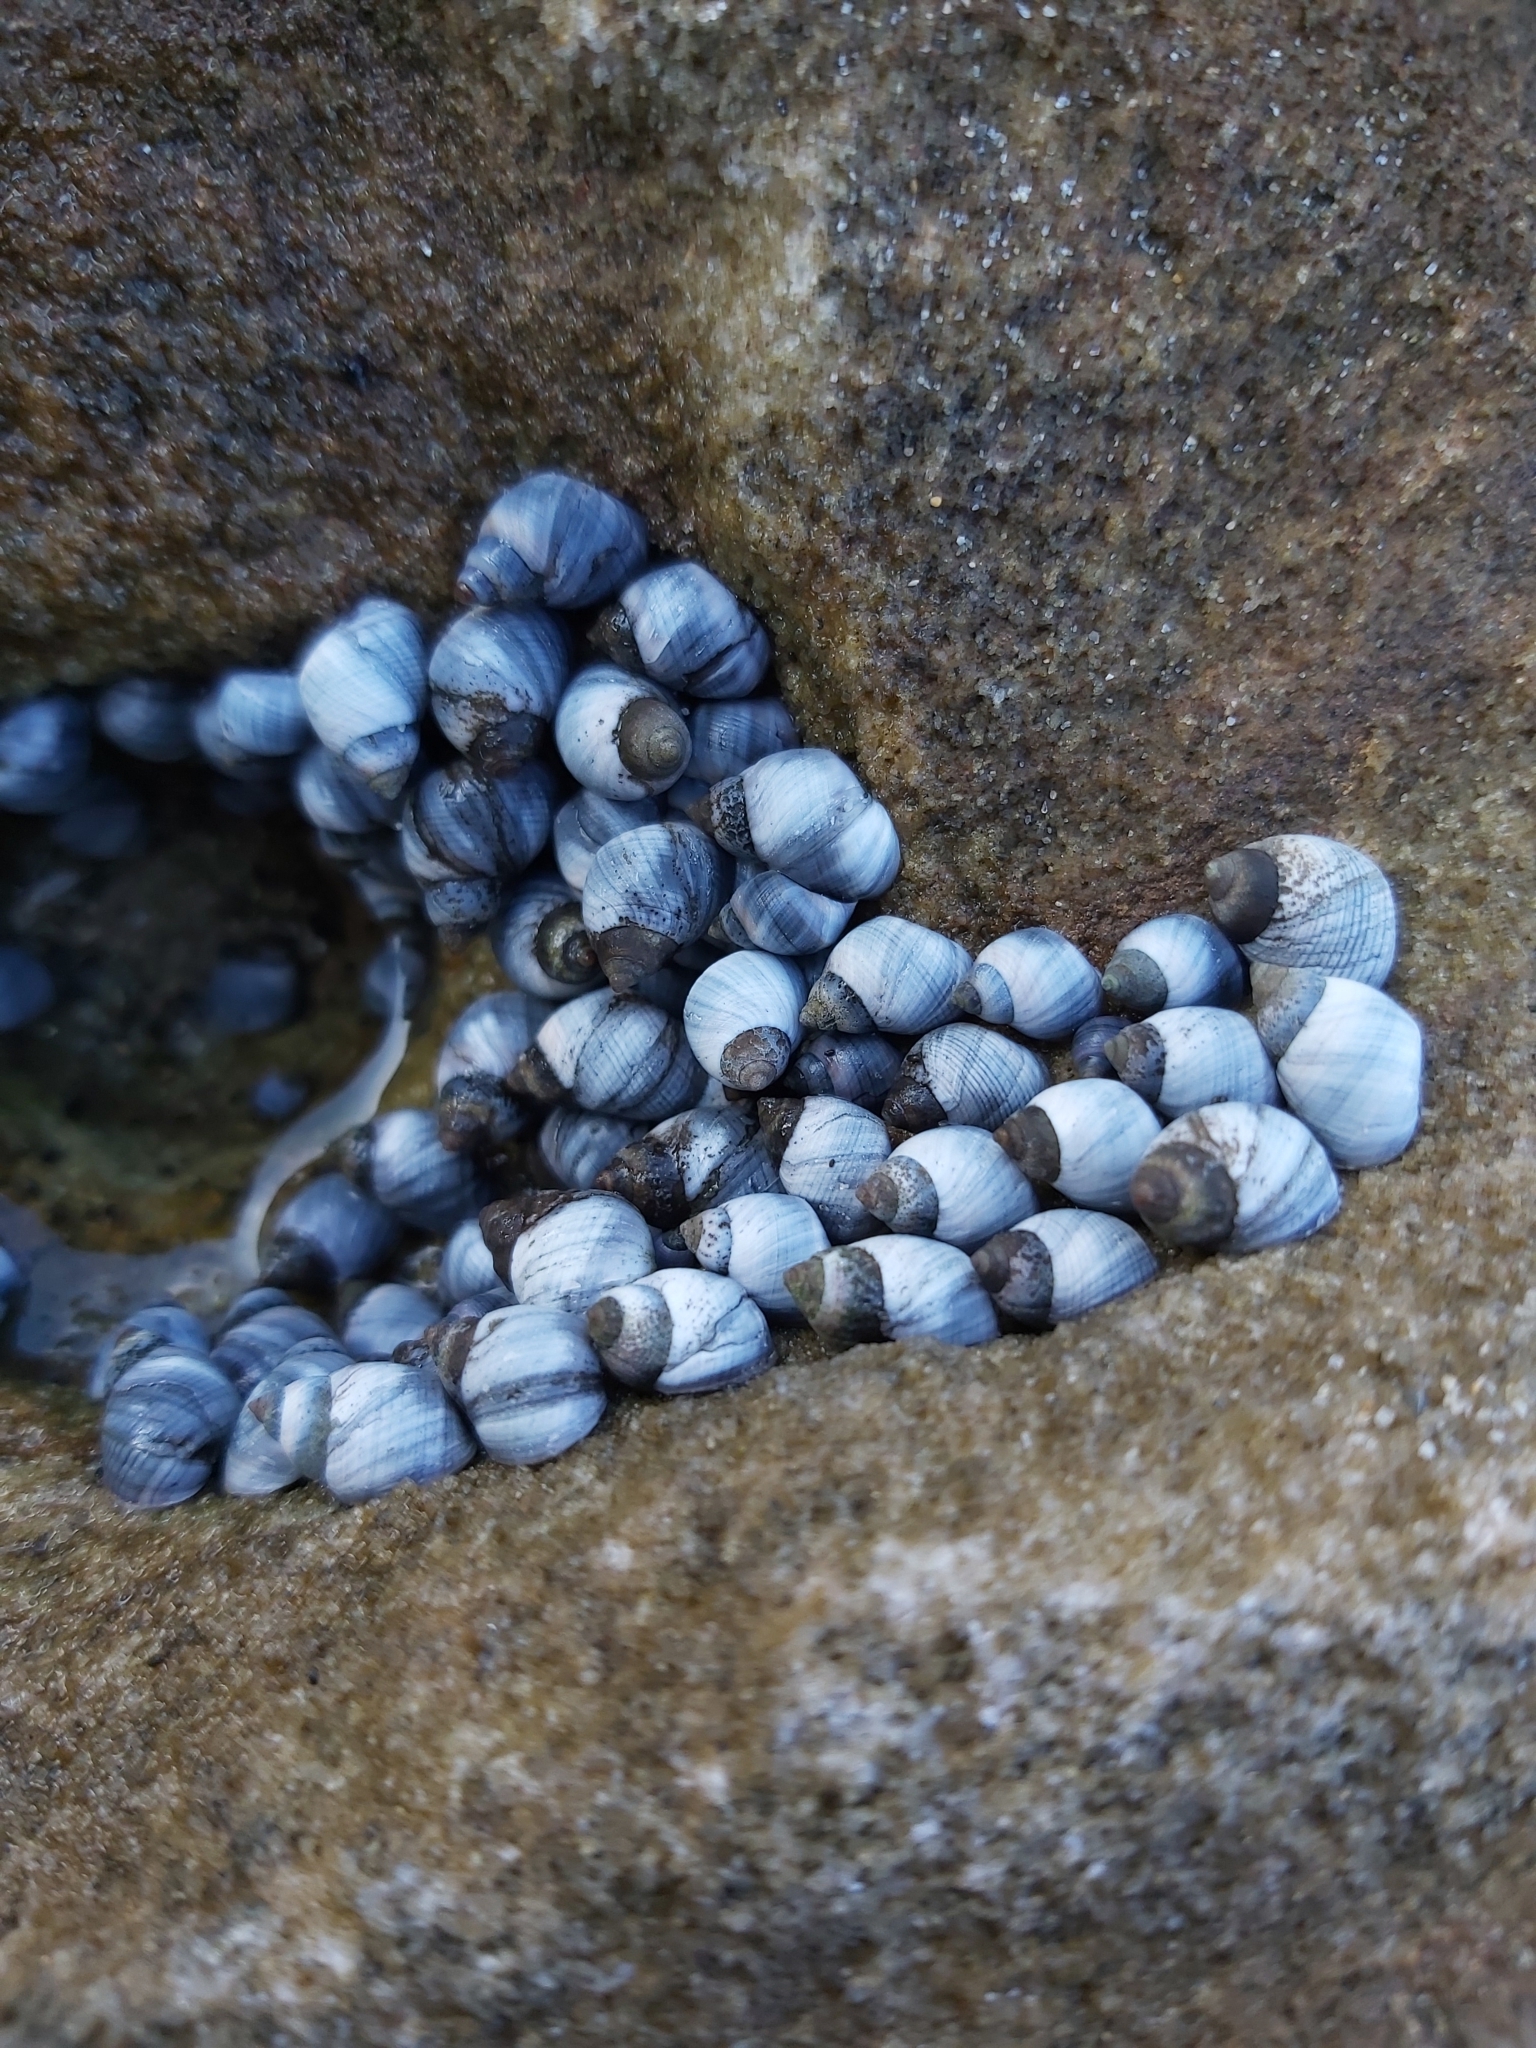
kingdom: Animalia
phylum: Mollusca
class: Gastropoda
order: Littorinimorpha
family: Littorinidae
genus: Austrolittorina
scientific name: Austrolittorina unifasciata
